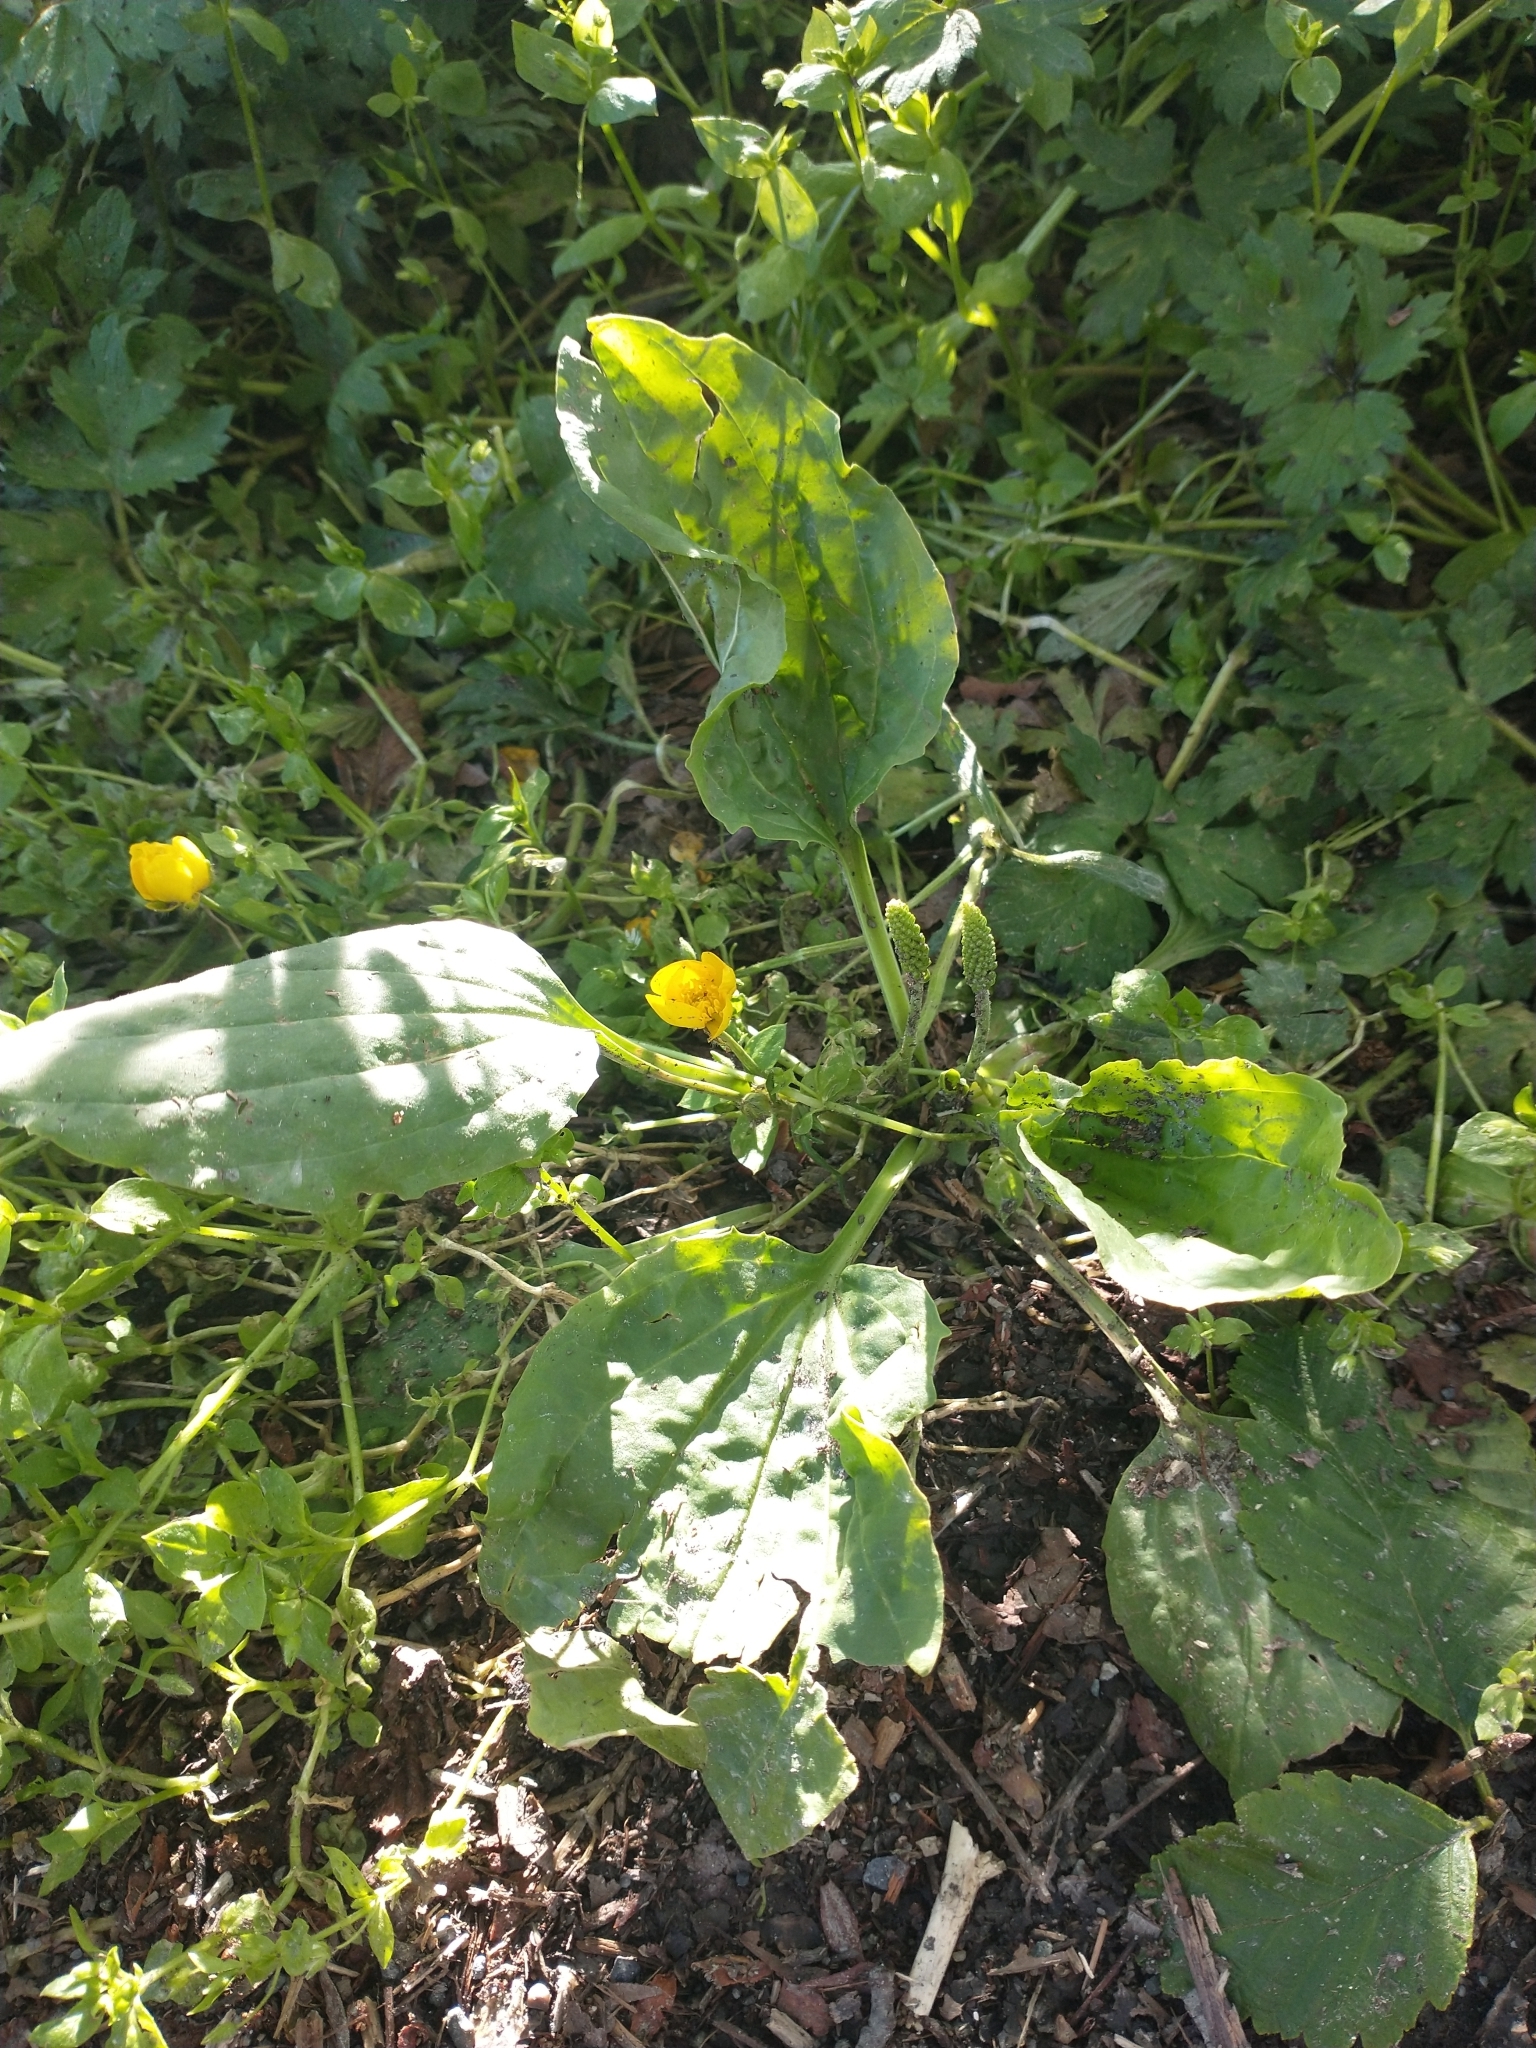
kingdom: Plantae
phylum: Tracheophyta
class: Magnoliopsida
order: Lamiales
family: Plantaginaceae
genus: Plantago
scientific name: Plantago major
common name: Common plantain
